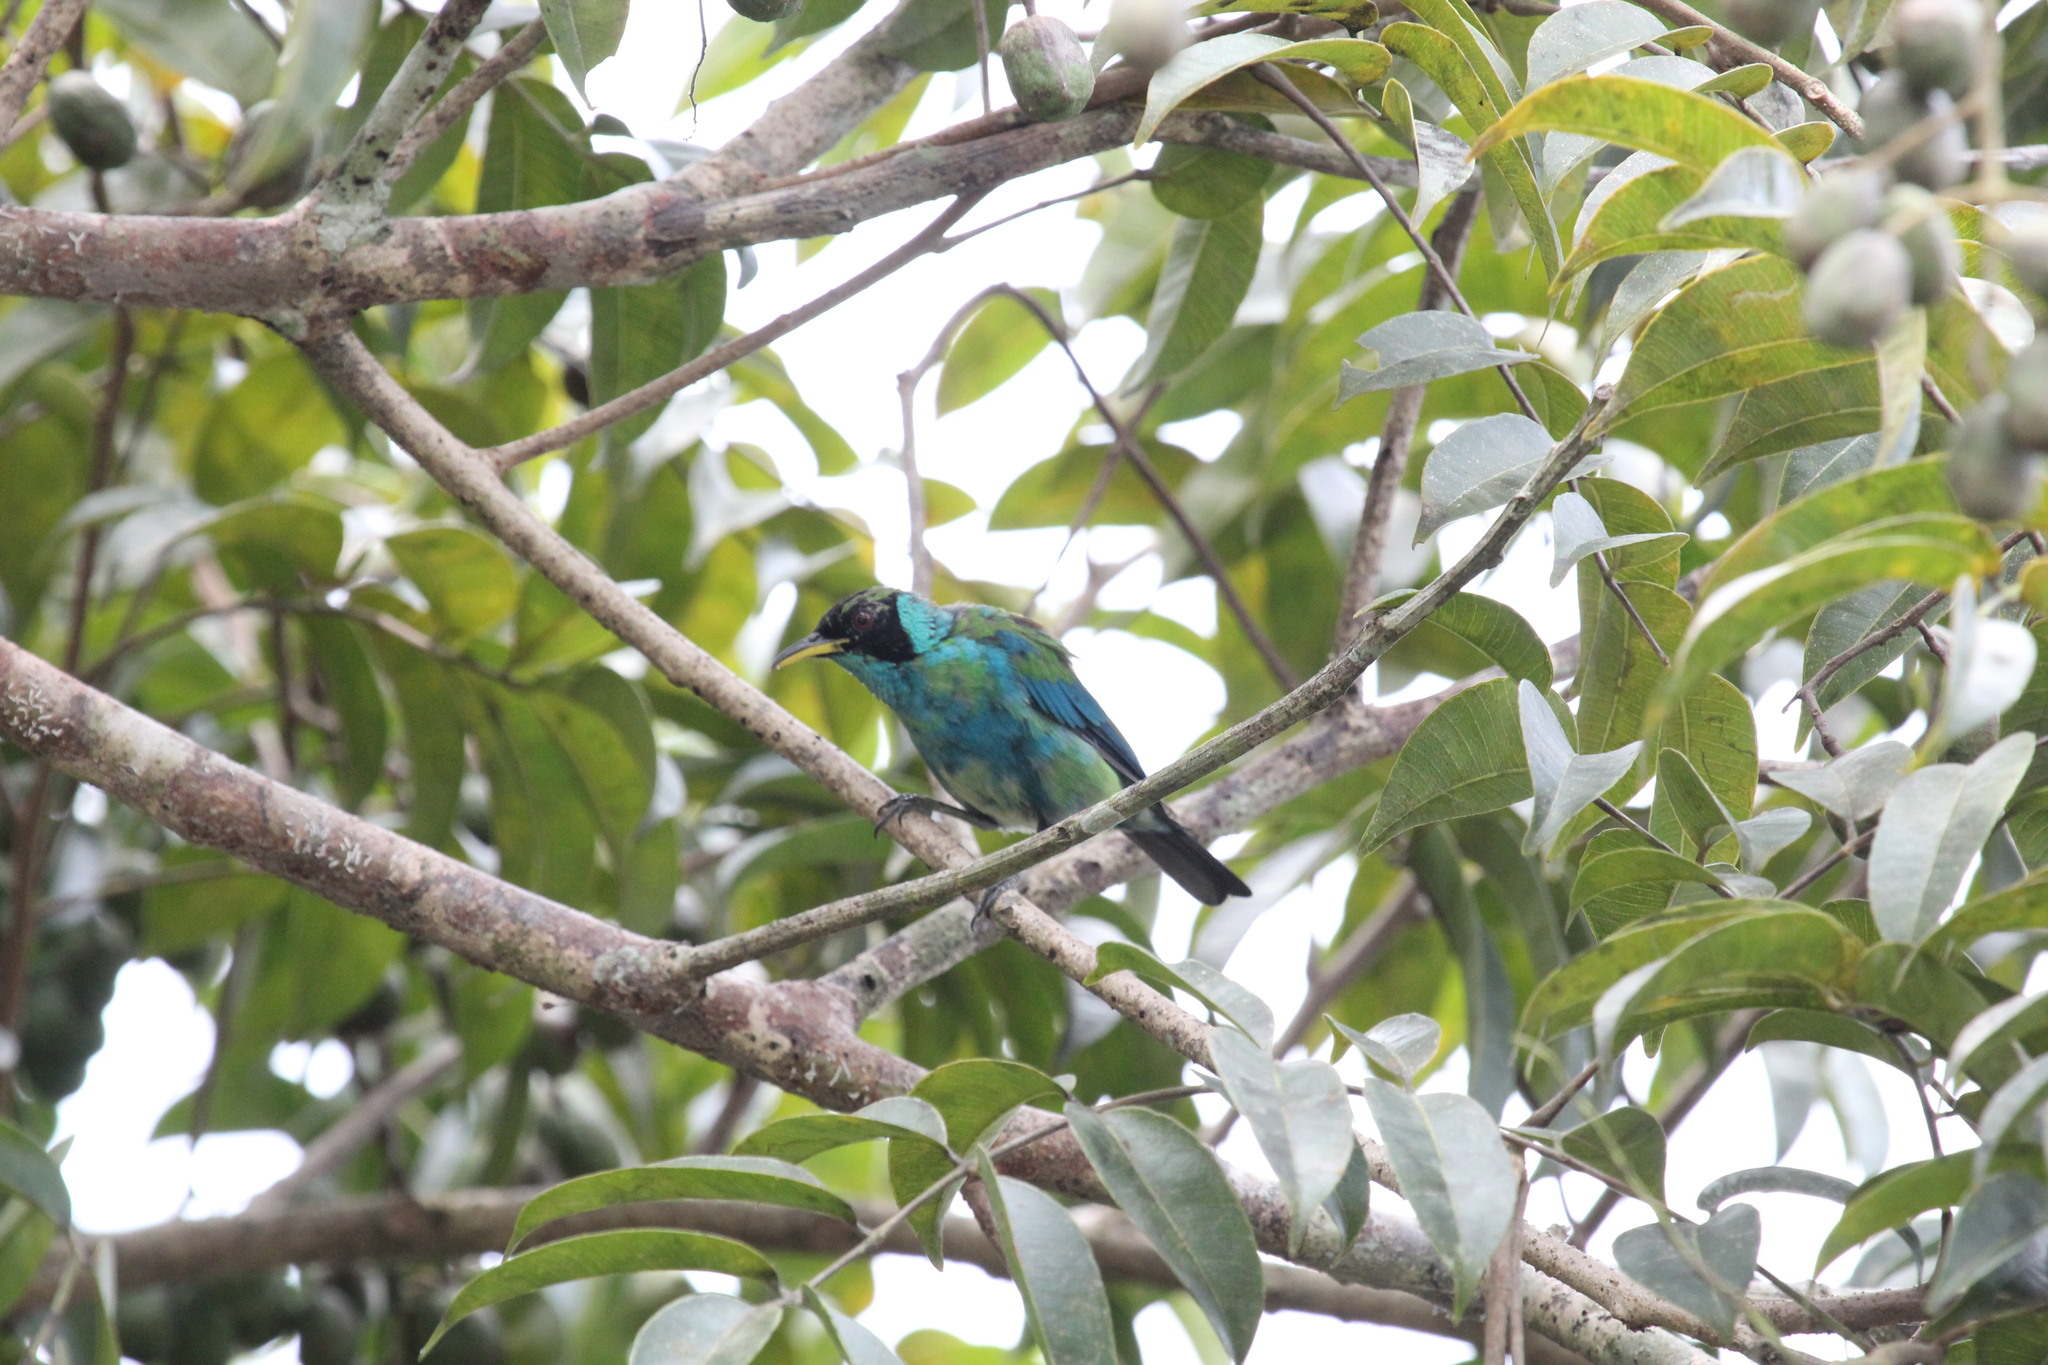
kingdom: Animalia
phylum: Chordata
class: Aves
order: Passeriformes
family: Thraupidae
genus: Chlorophanes
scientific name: Chlorophanes spiza
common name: Green honeycreeper
